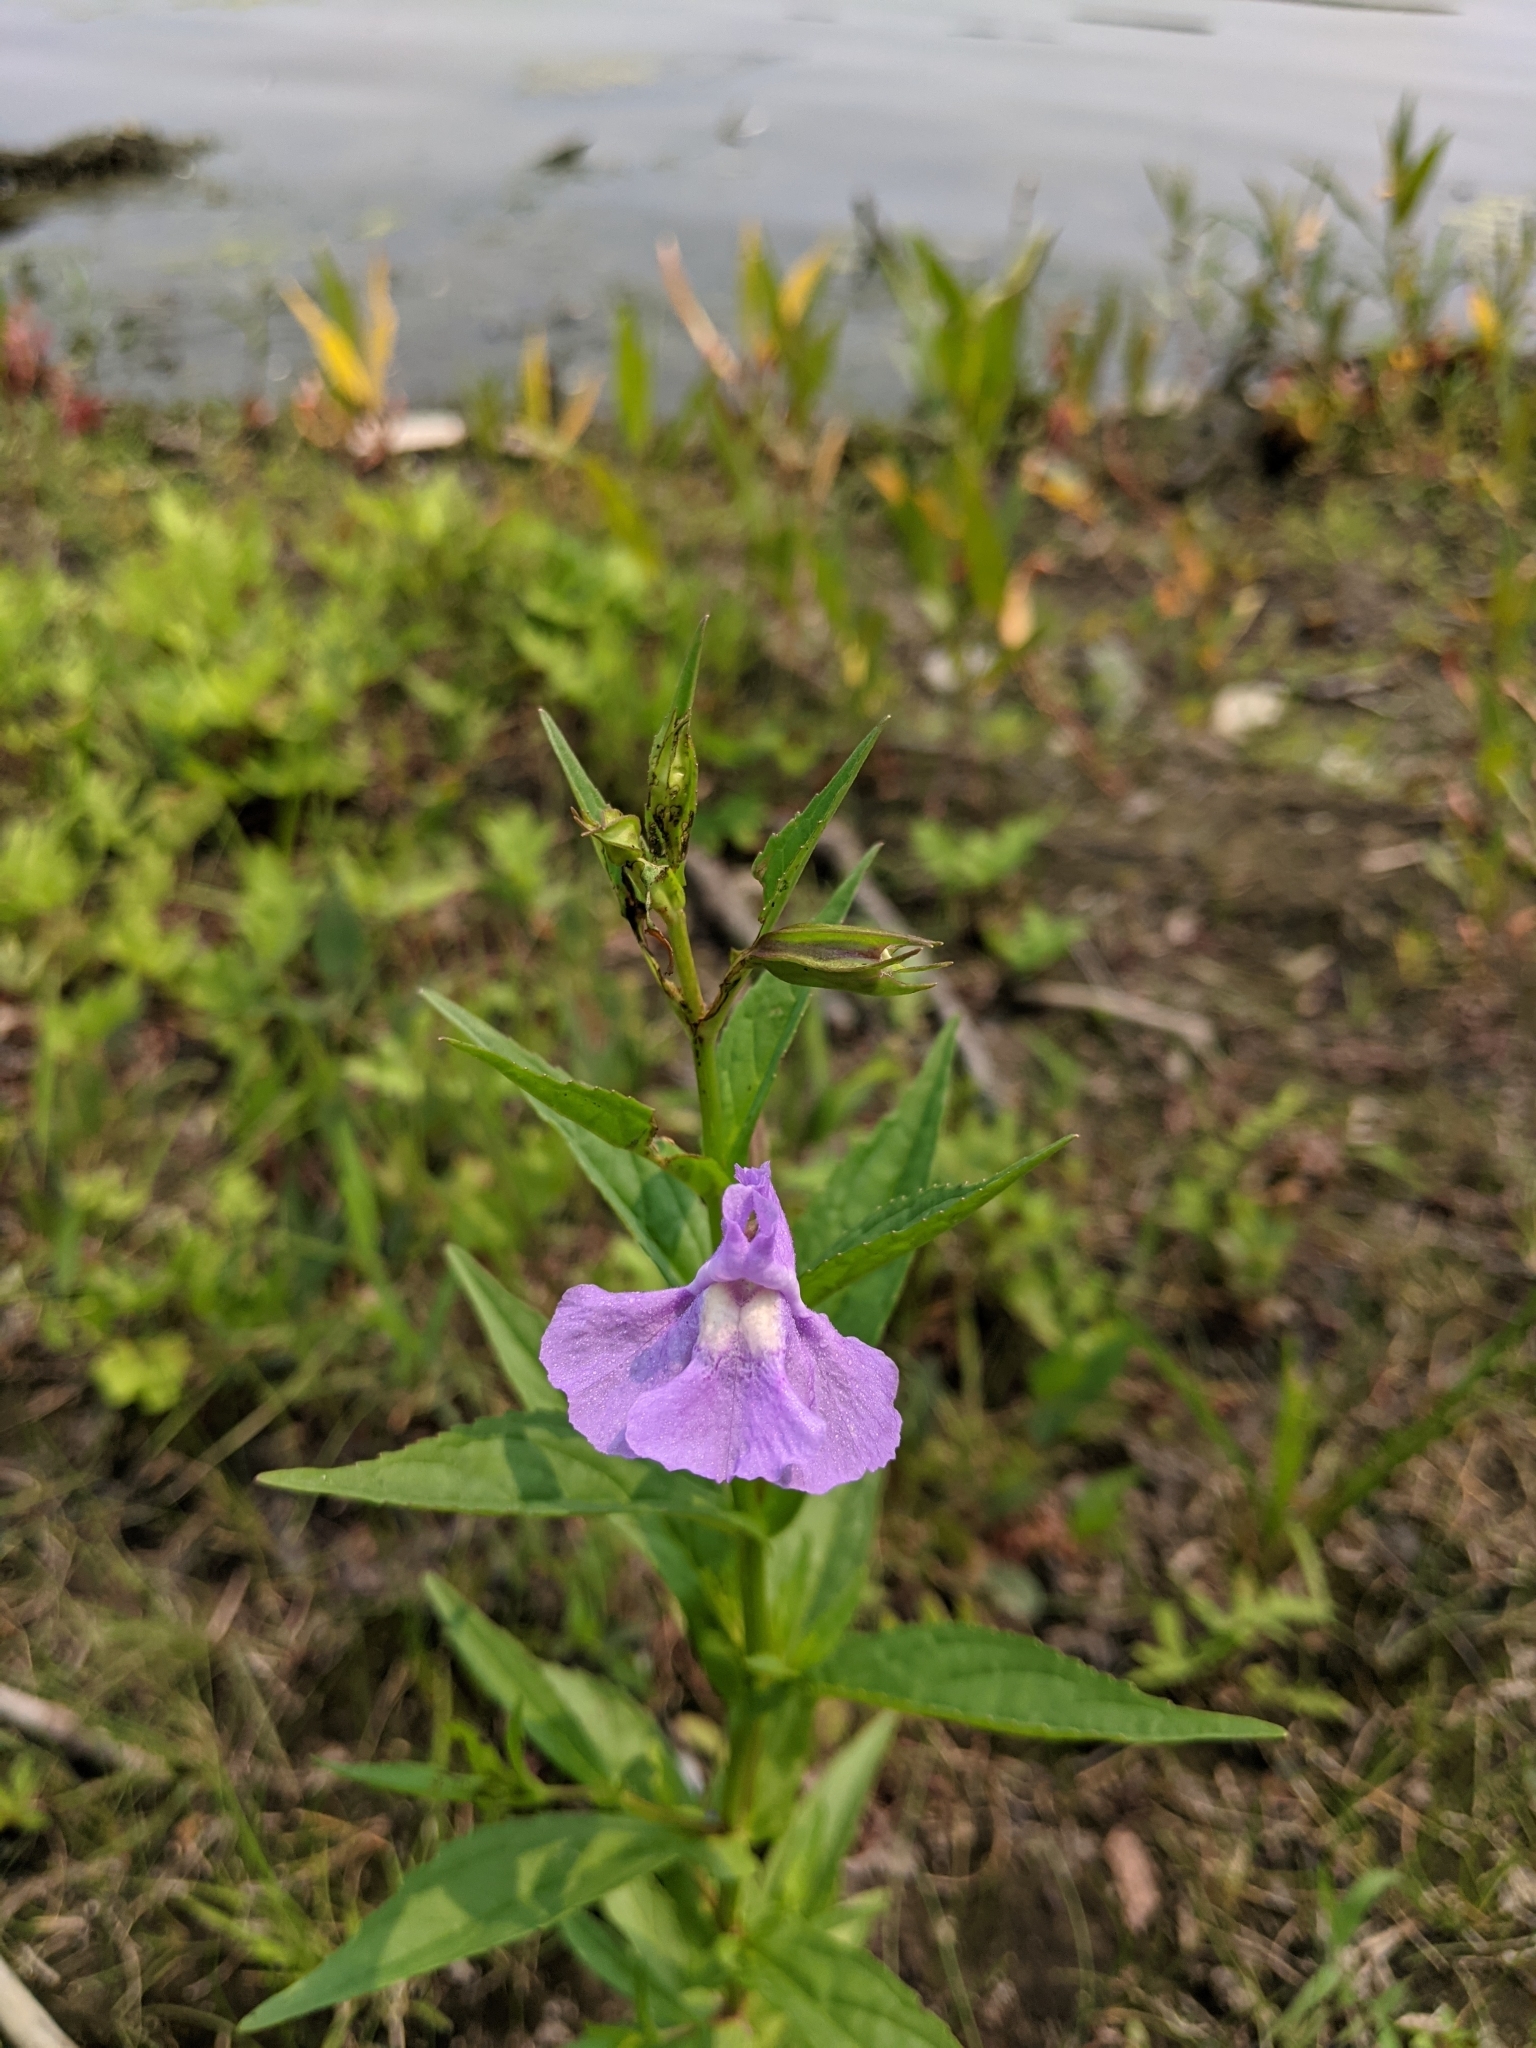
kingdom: Plantae
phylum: Tracheophyta
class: Magnoliopsida
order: Lamiales
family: Phrymaceae
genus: Mimulus
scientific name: Mimulus ringens
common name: Allegheny monkeyflower
